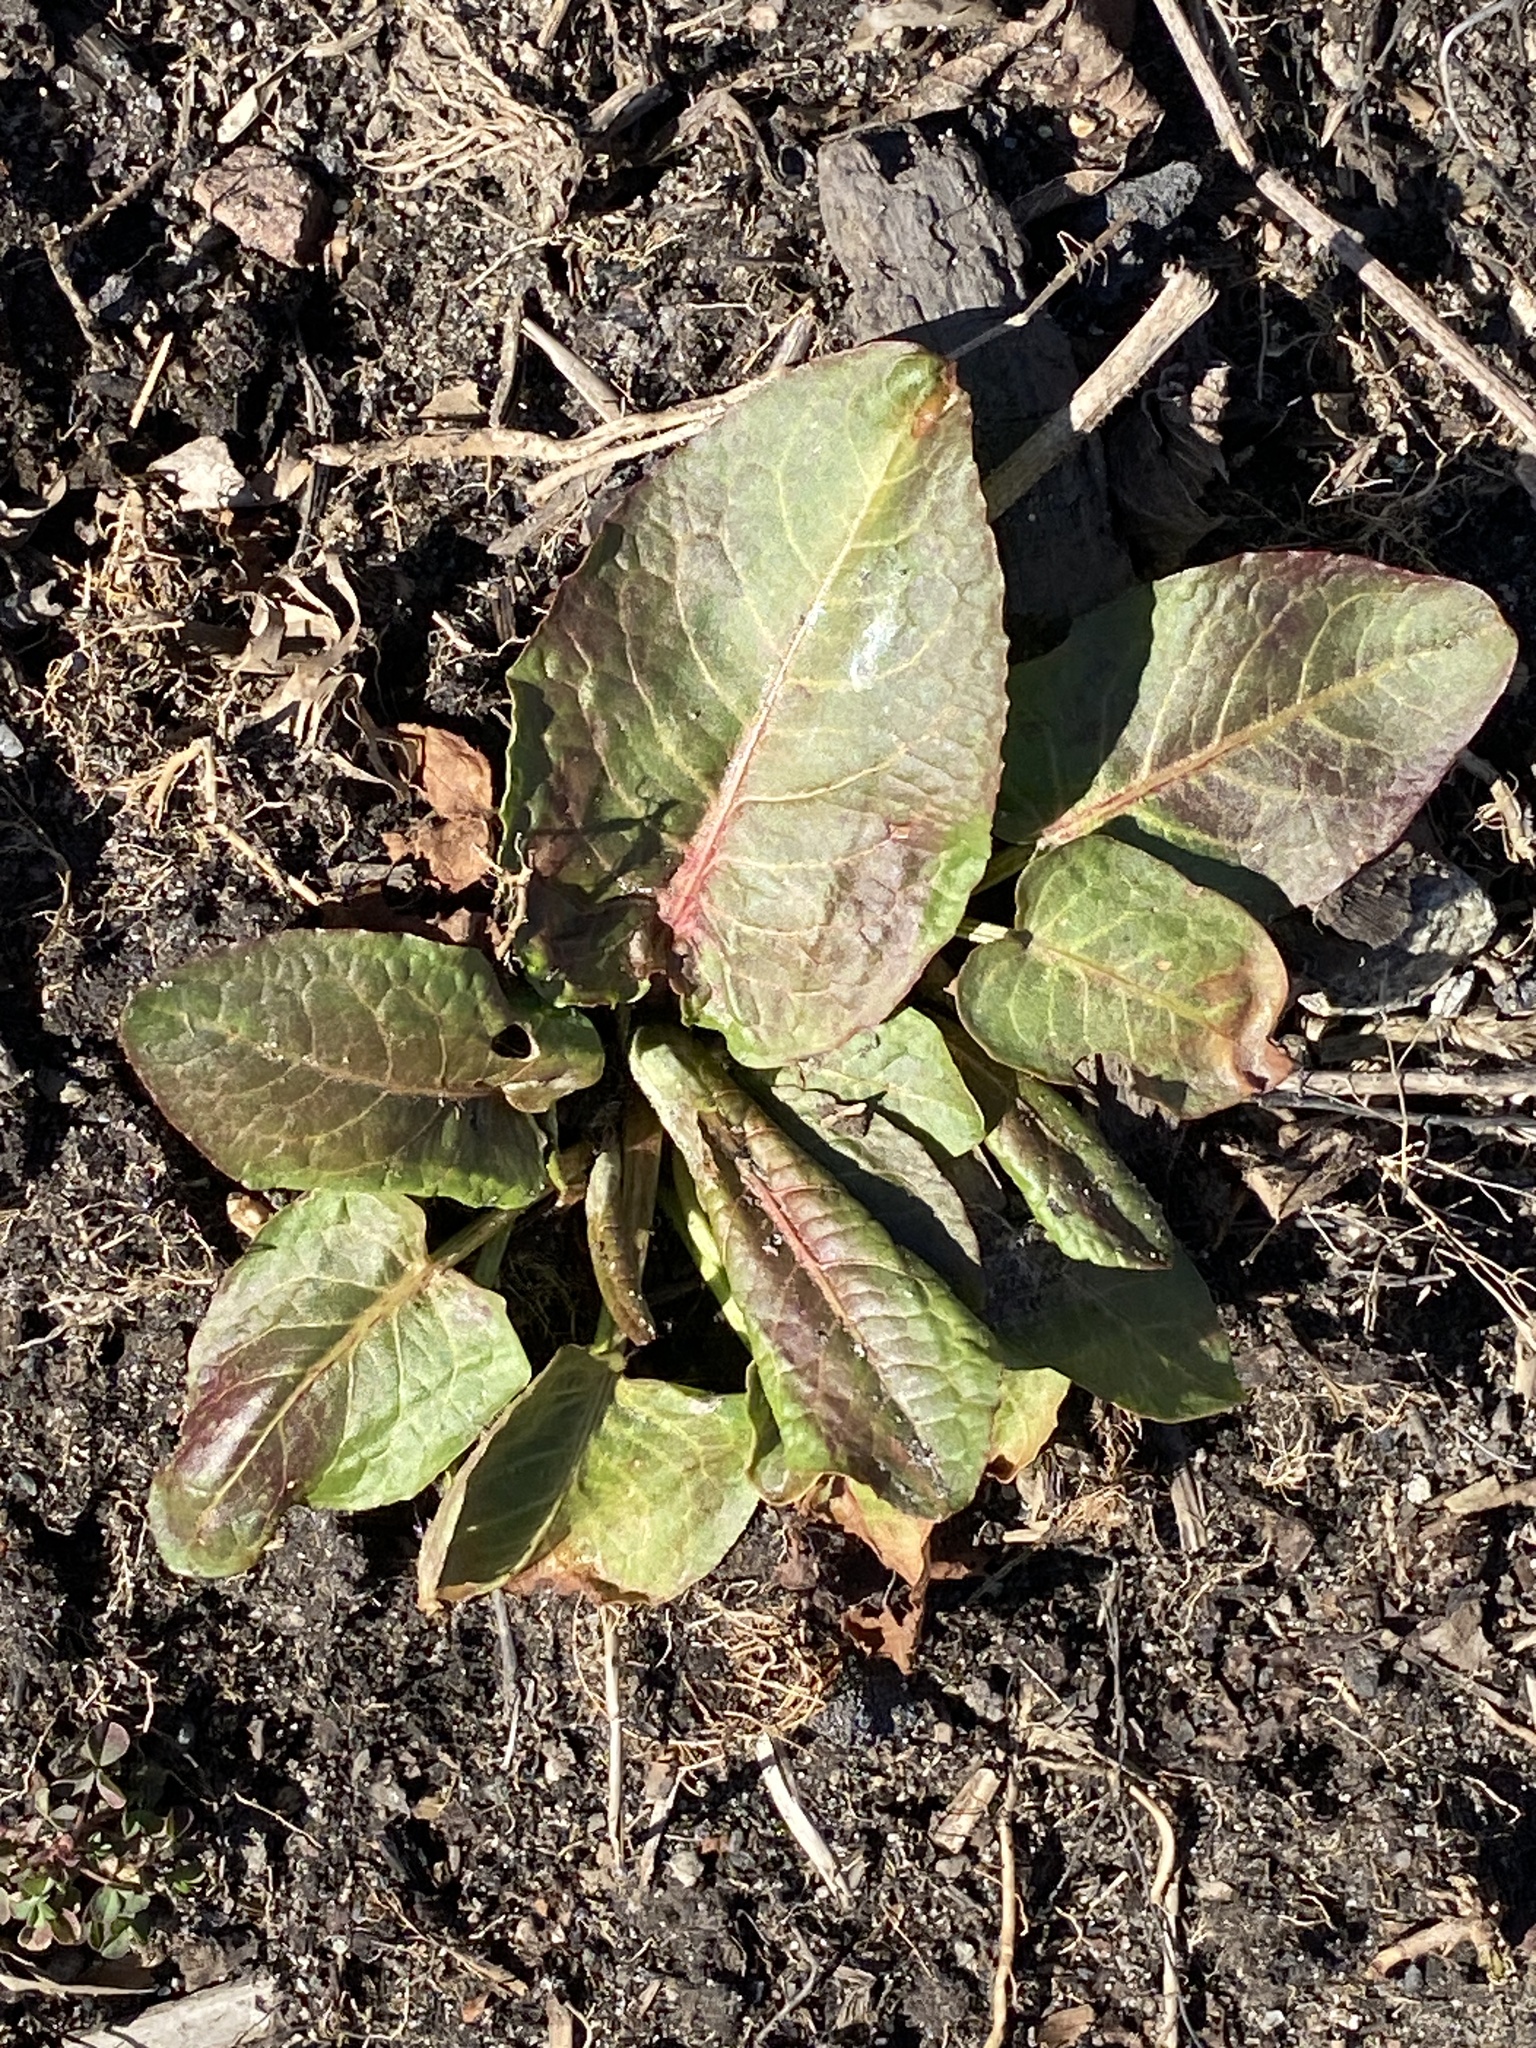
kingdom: Plantae
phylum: Tracheophyta
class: Magnoliopsida
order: Caryophyllales
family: Polygonaceae
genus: Rumex
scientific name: Rumex obtusifolius
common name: Bitter dock
